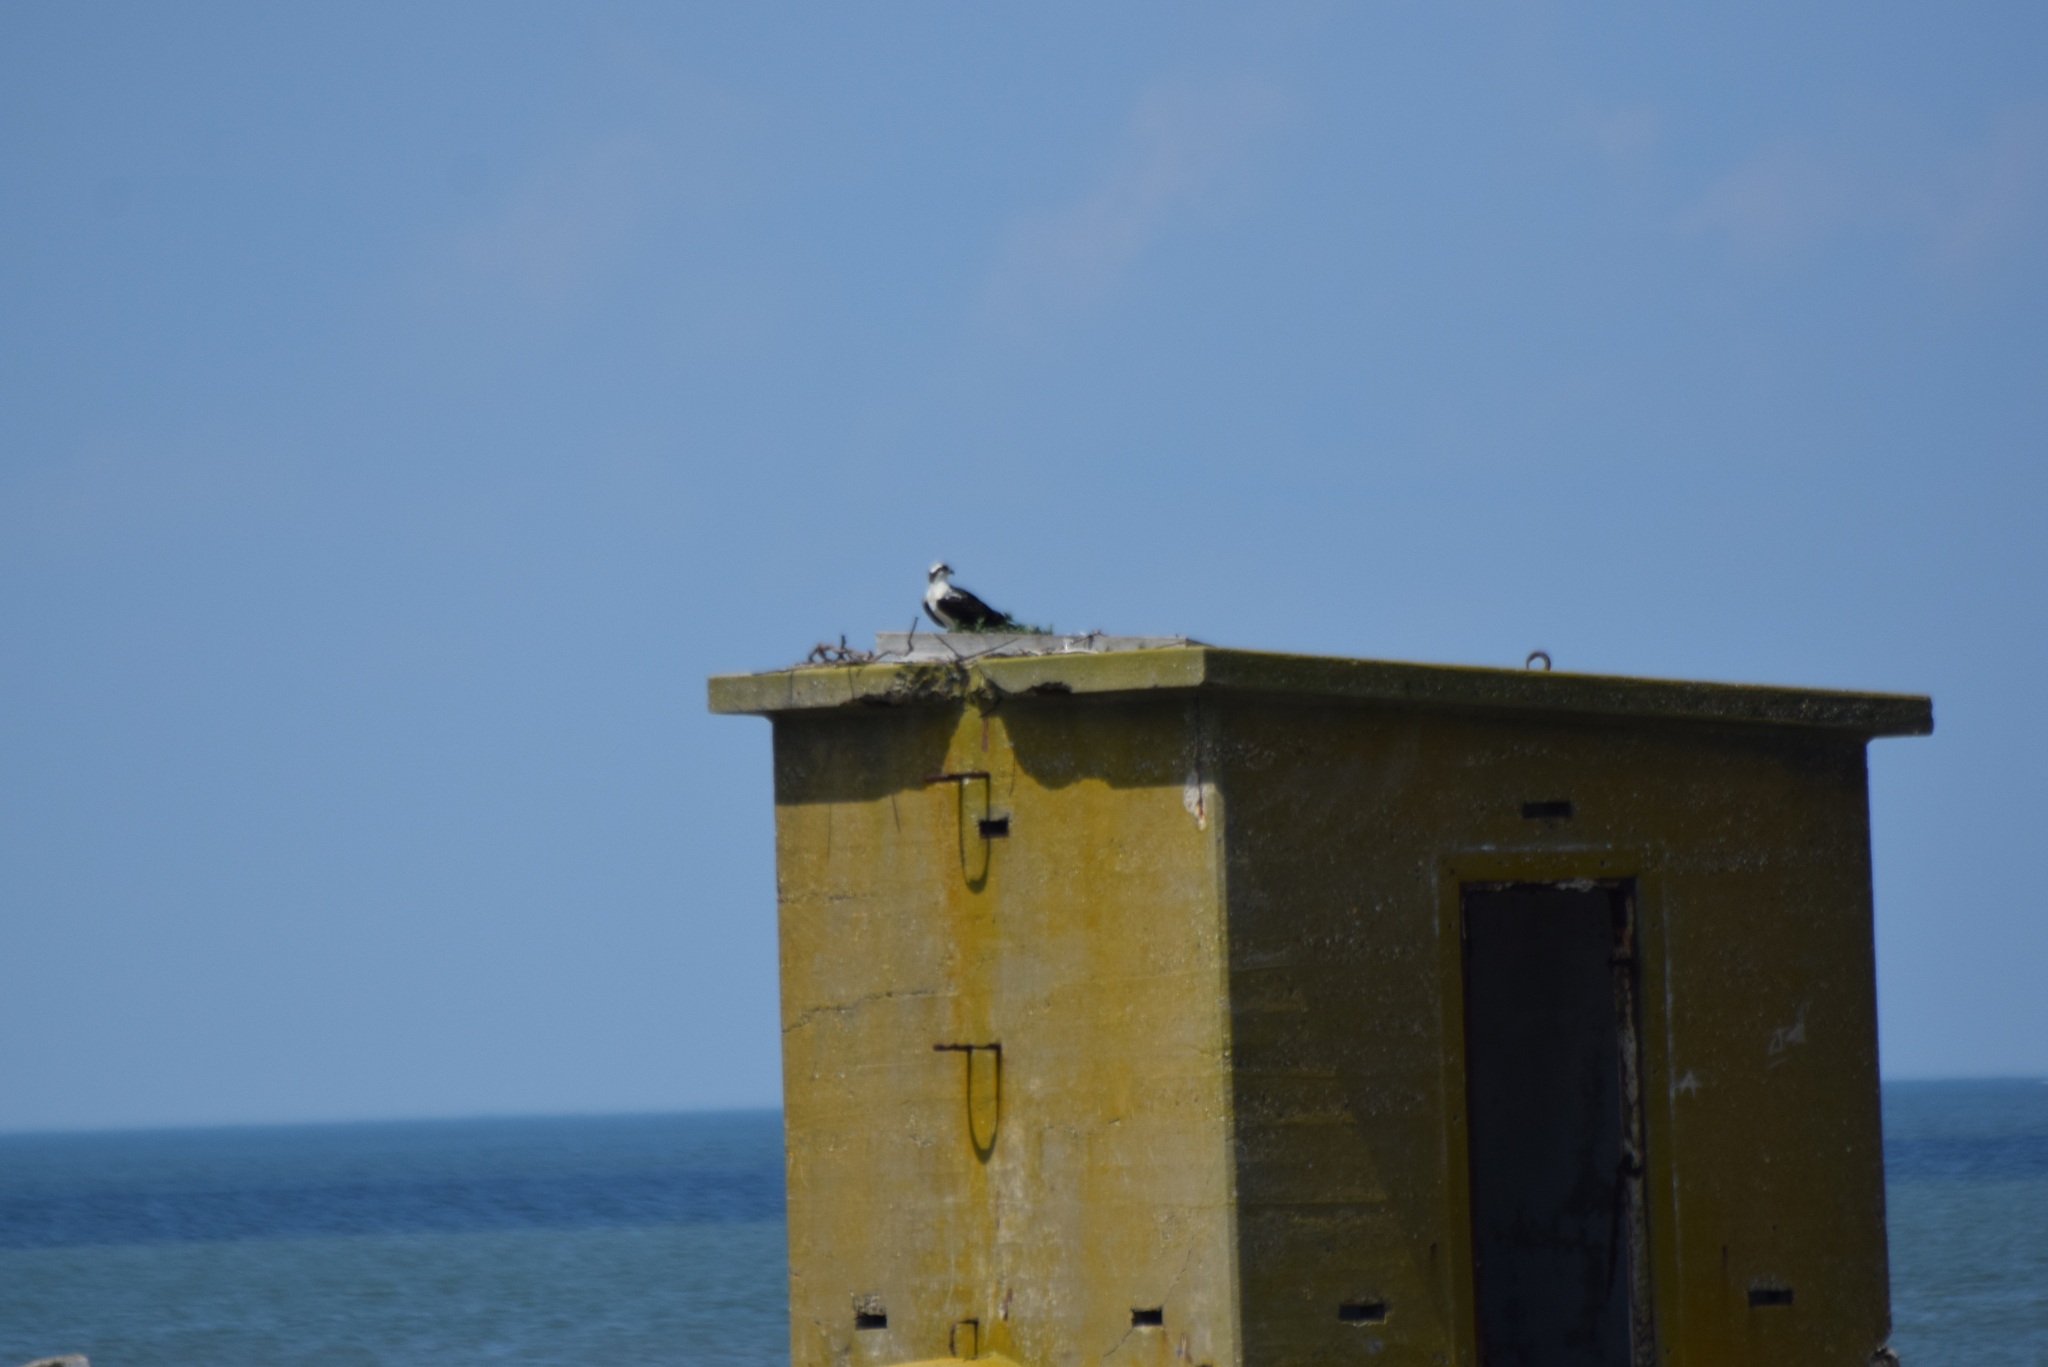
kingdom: Animalia
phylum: Chordata
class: Aves
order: Accipitriformes
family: Pandionidae
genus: Pandion
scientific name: Pandion haliaetus
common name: Osprey
